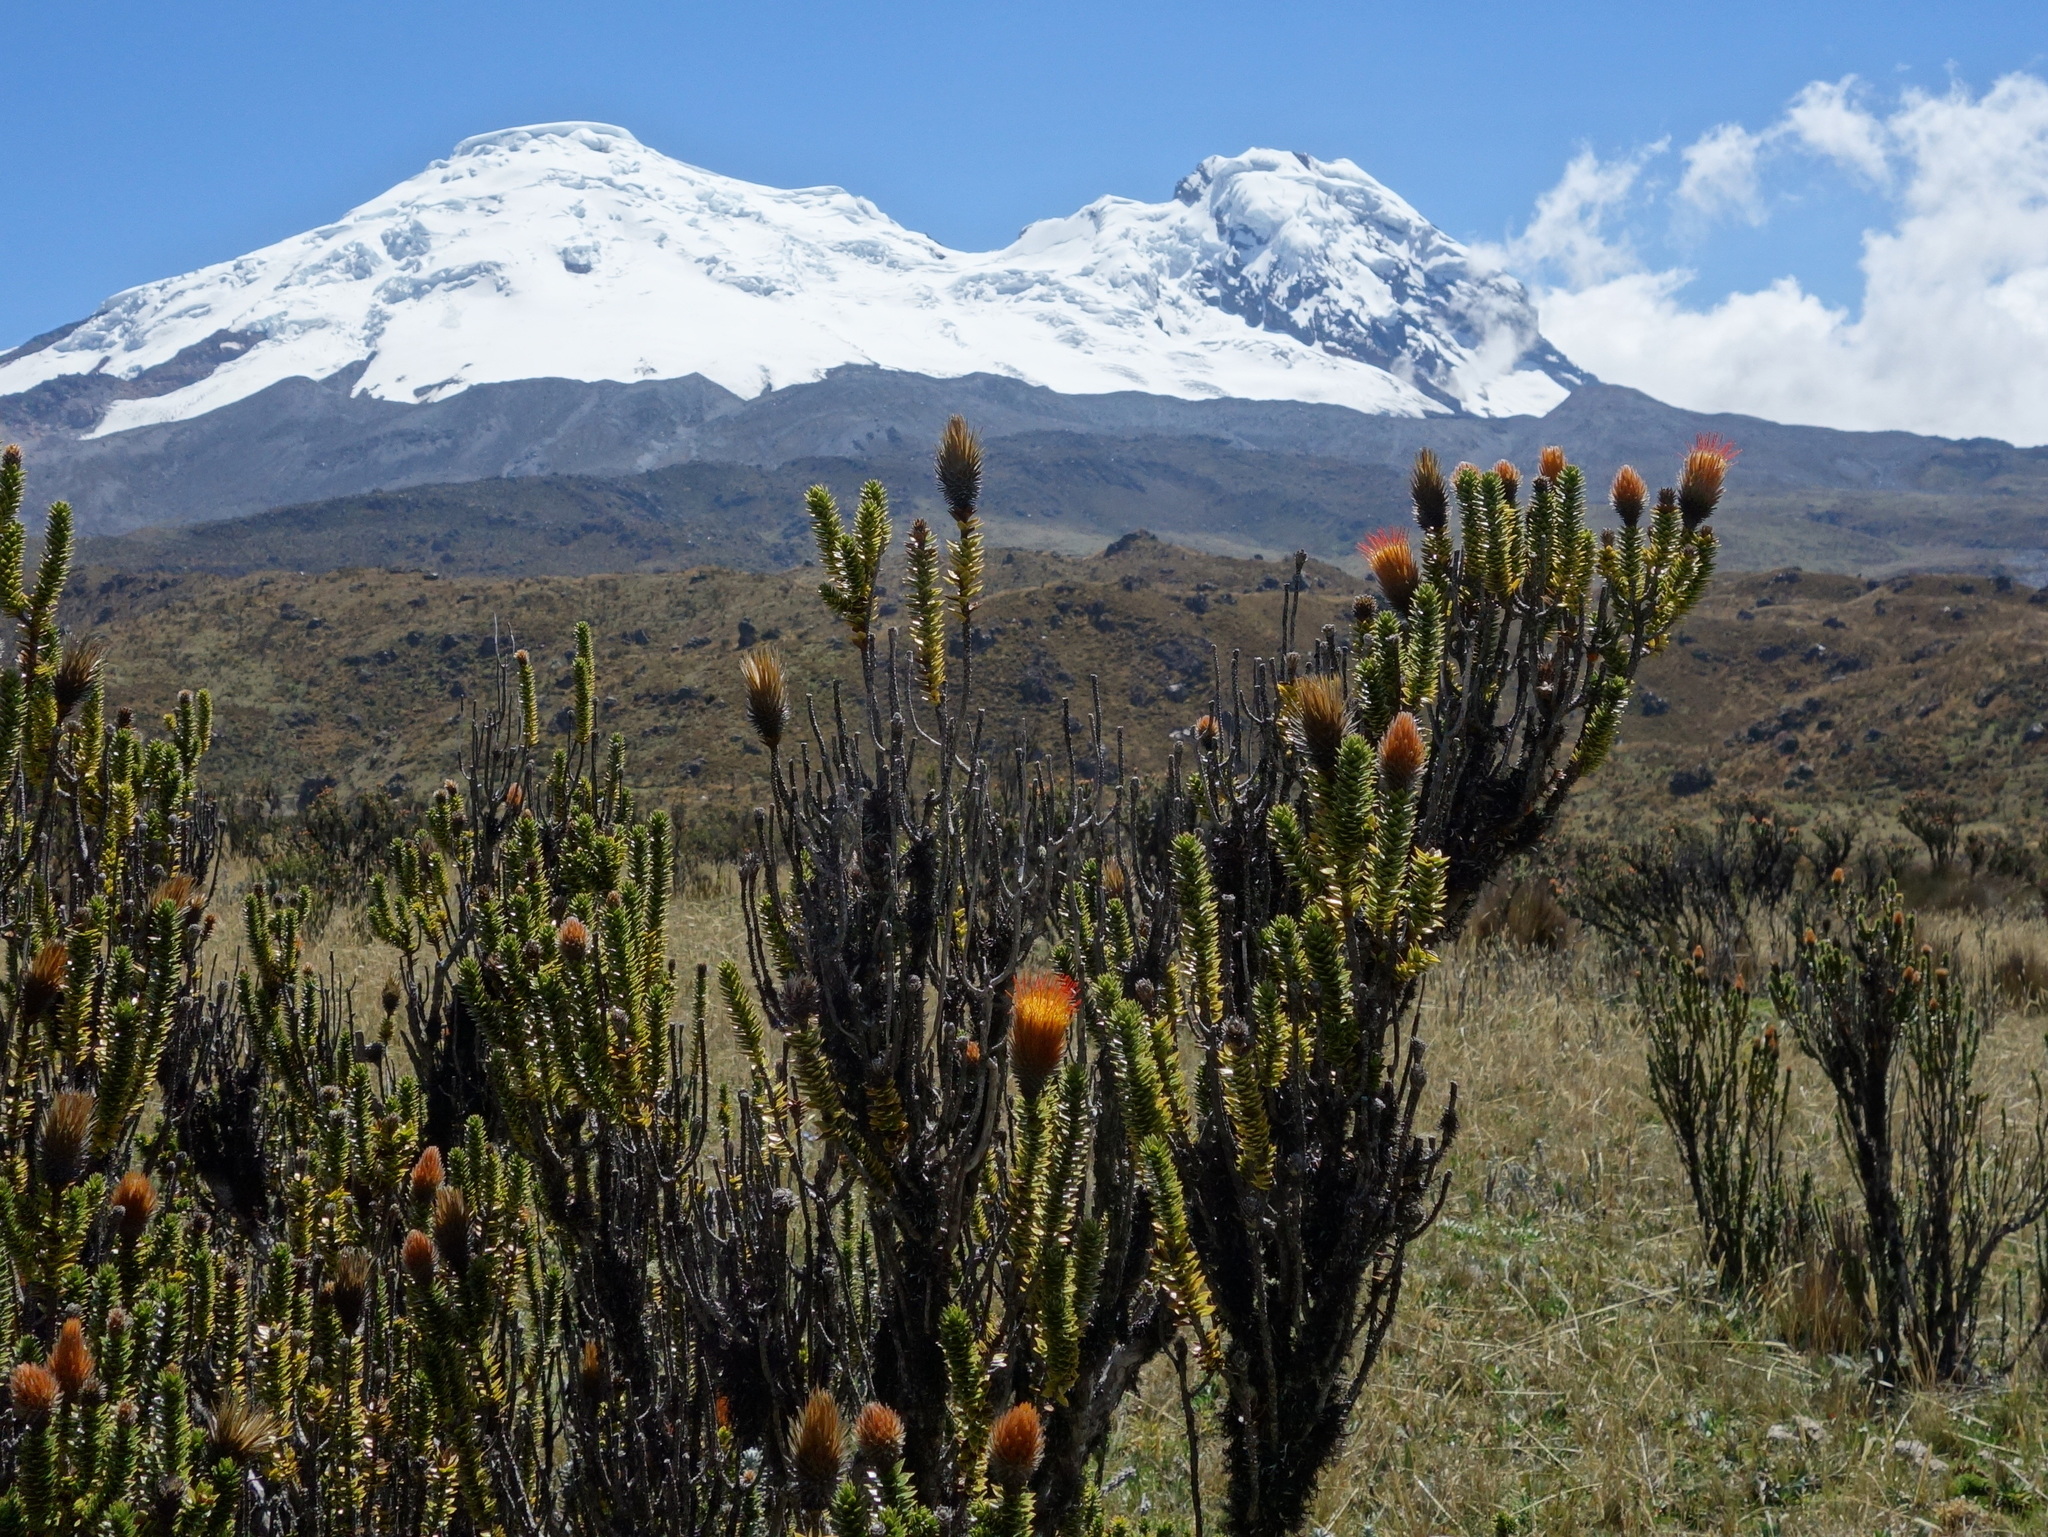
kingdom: Plantae
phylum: Tracheophyta
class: Magnoliopsida
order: Asterales
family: Asteraceae
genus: Chuquiraga
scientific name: Chuquiraga jussieui
